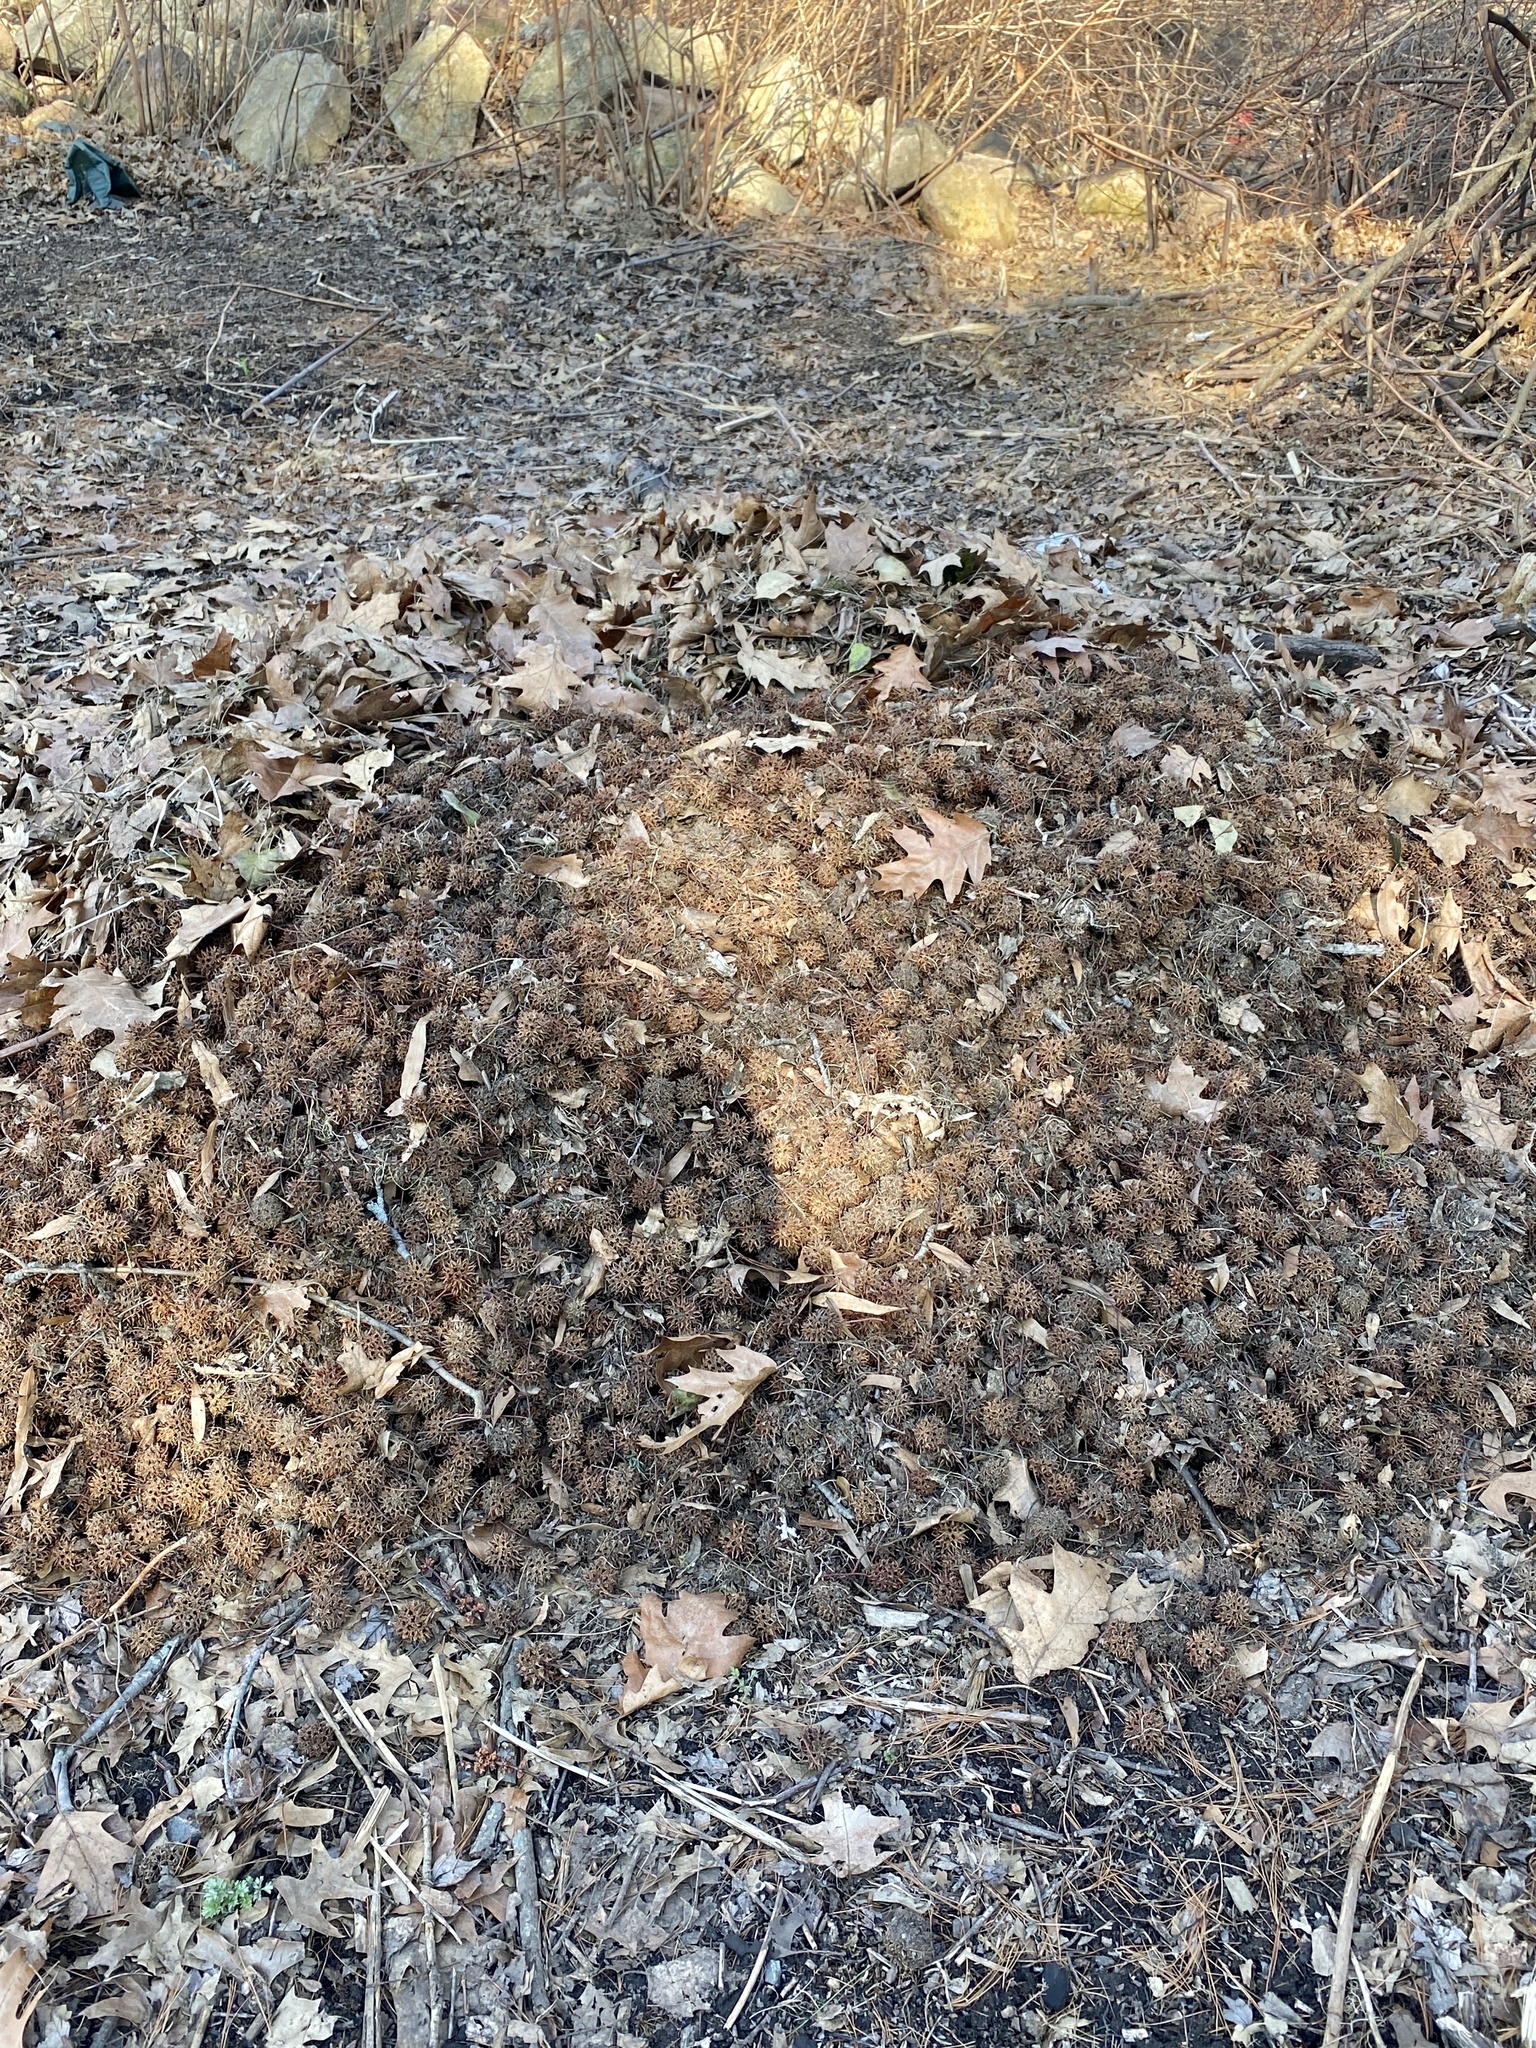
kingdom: Plantae
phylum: Tracheophyta
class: Magnoliopsida
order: Saxifragales
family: Altingiaceae
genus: Liquidambar
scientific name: Liquidambar styraciflua
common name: Sweet gum
